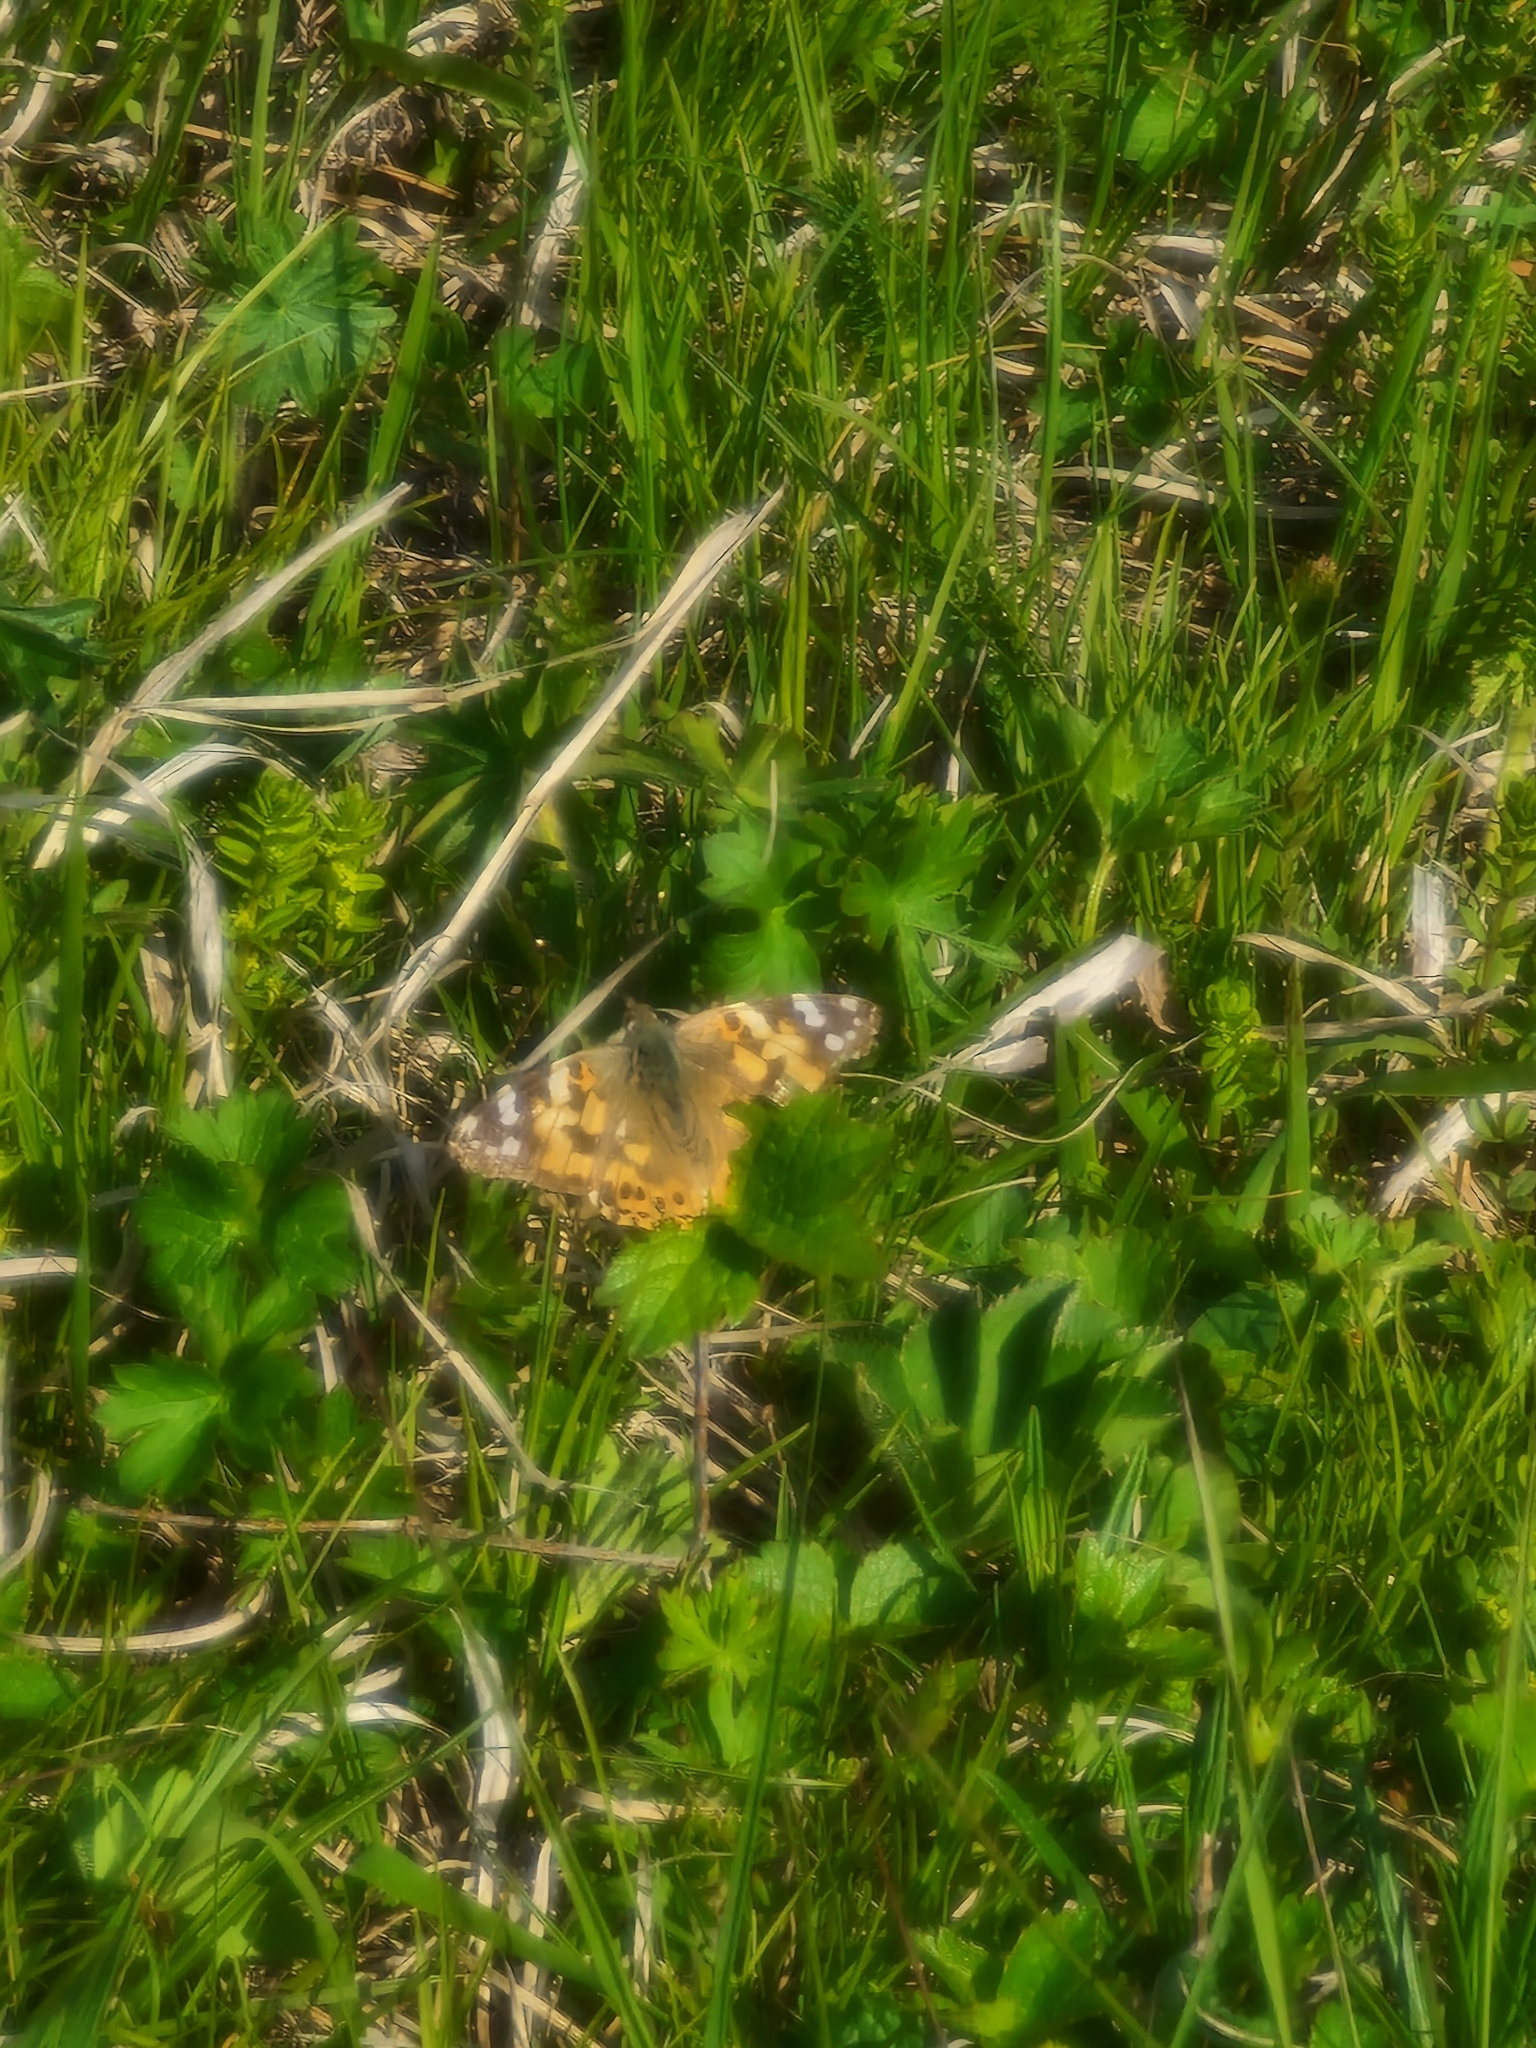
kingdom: Animalia
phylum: Arthropoda
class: Insecta
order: Lepidoptera
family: Nymphalidae
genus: Vanessa
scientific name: Vanessa cardui
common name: Painted lady
